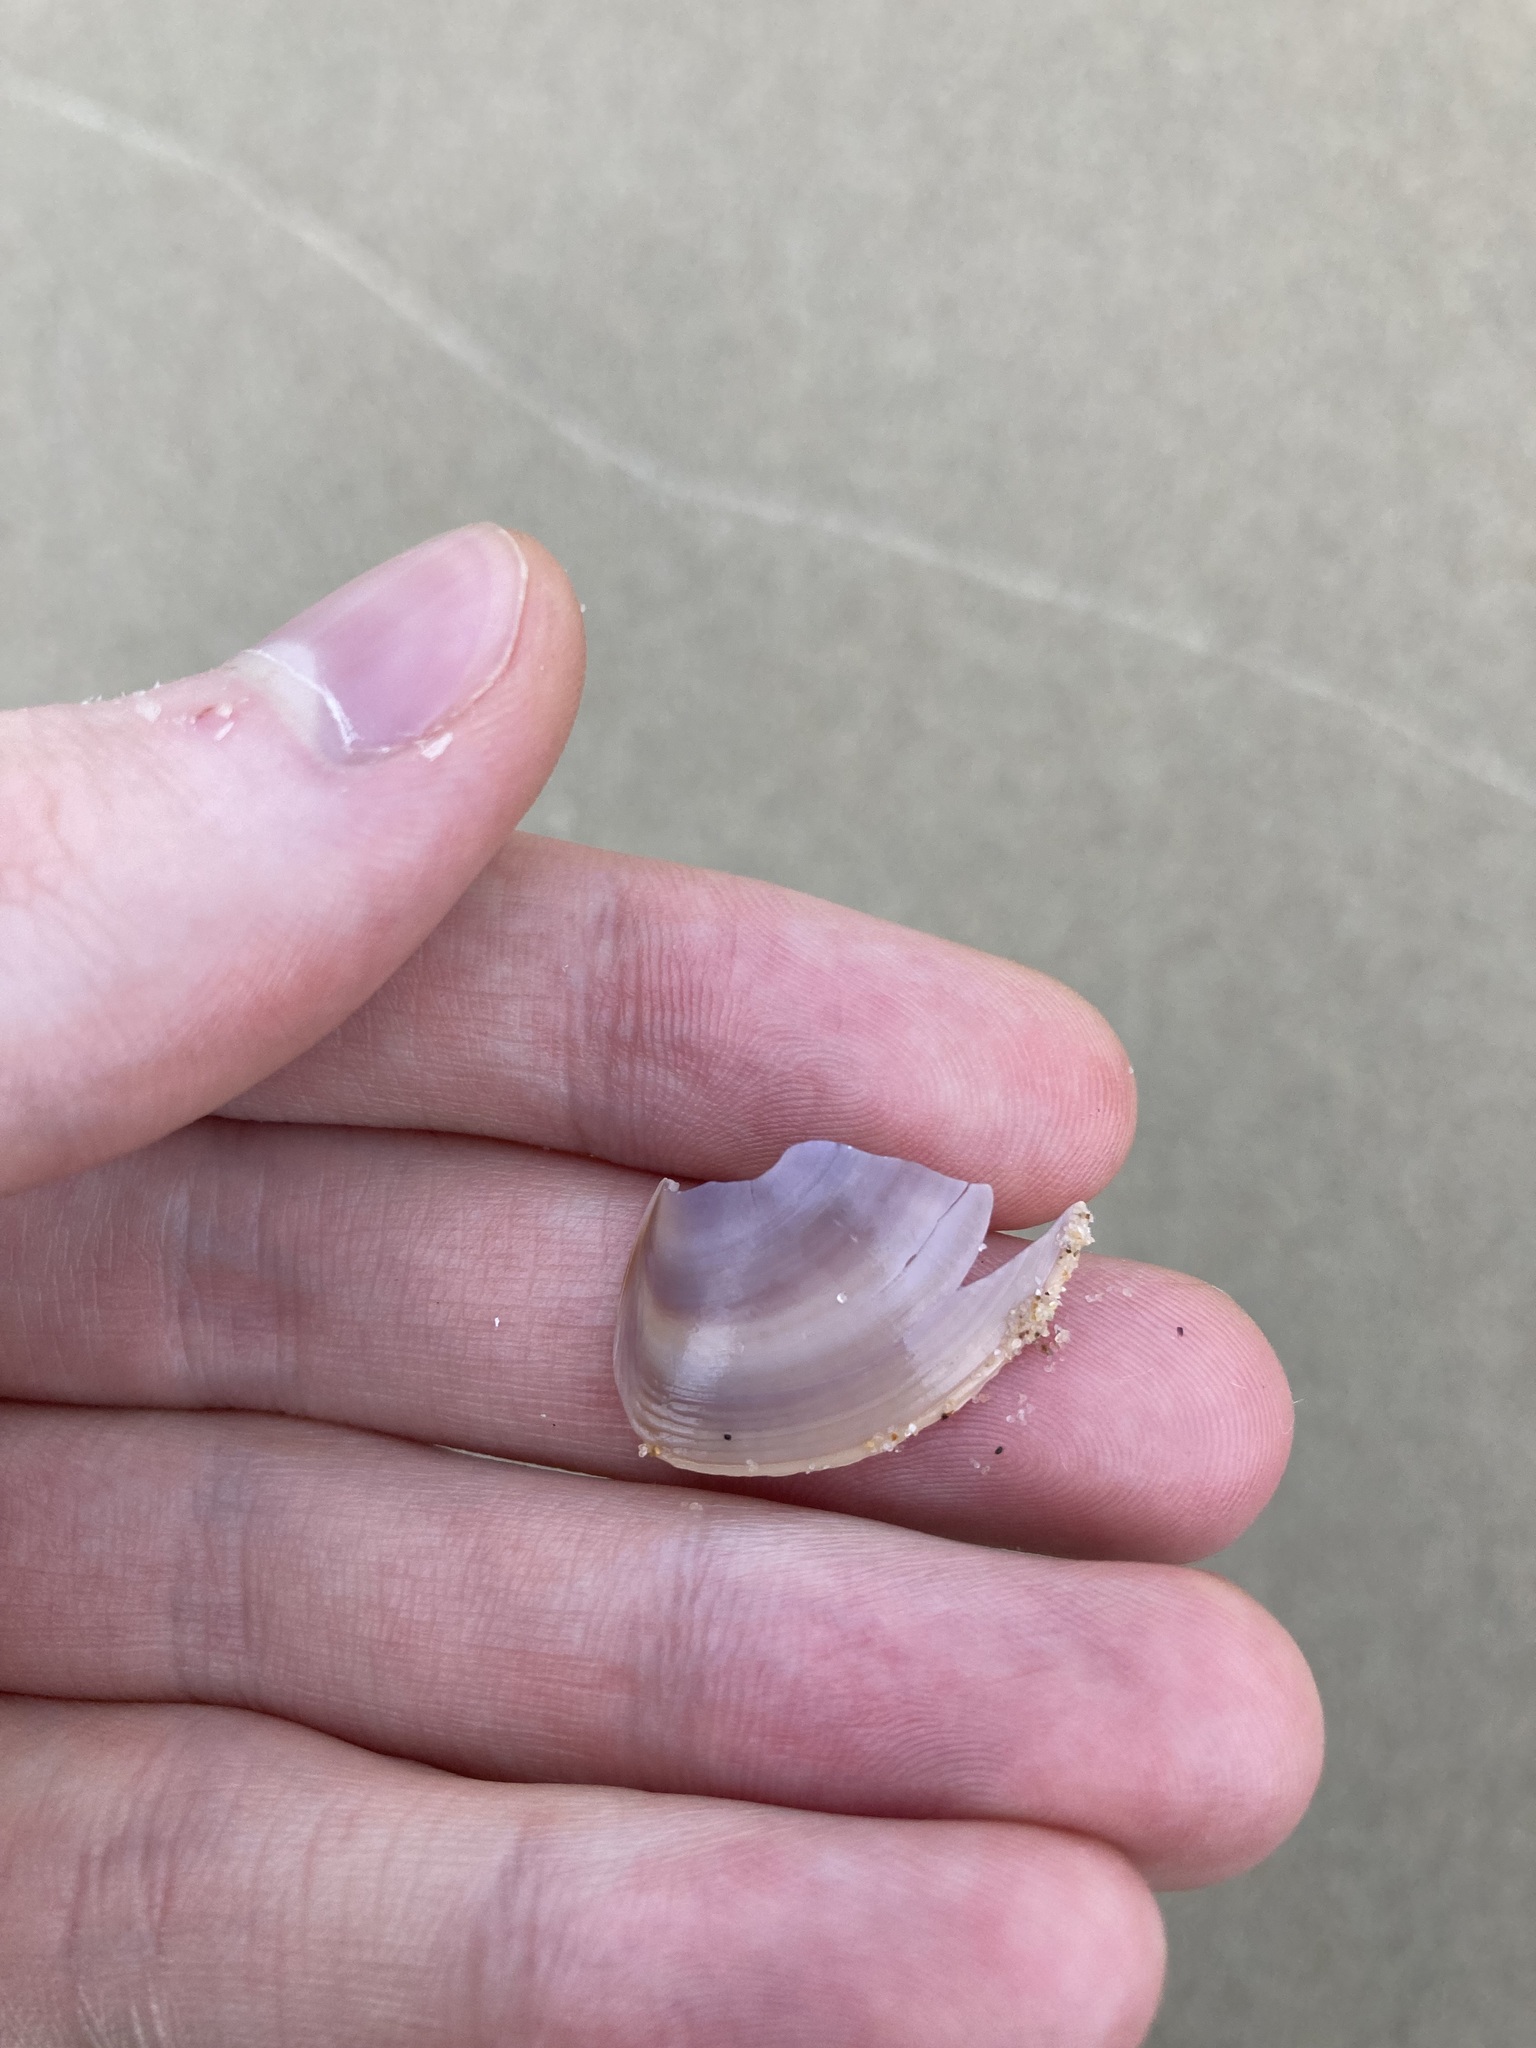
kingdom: Animalia
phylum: Mollusca
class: Bivalvia
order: Venerida
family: Mactridae
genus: Austromactra
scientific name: Austromactra contraria
